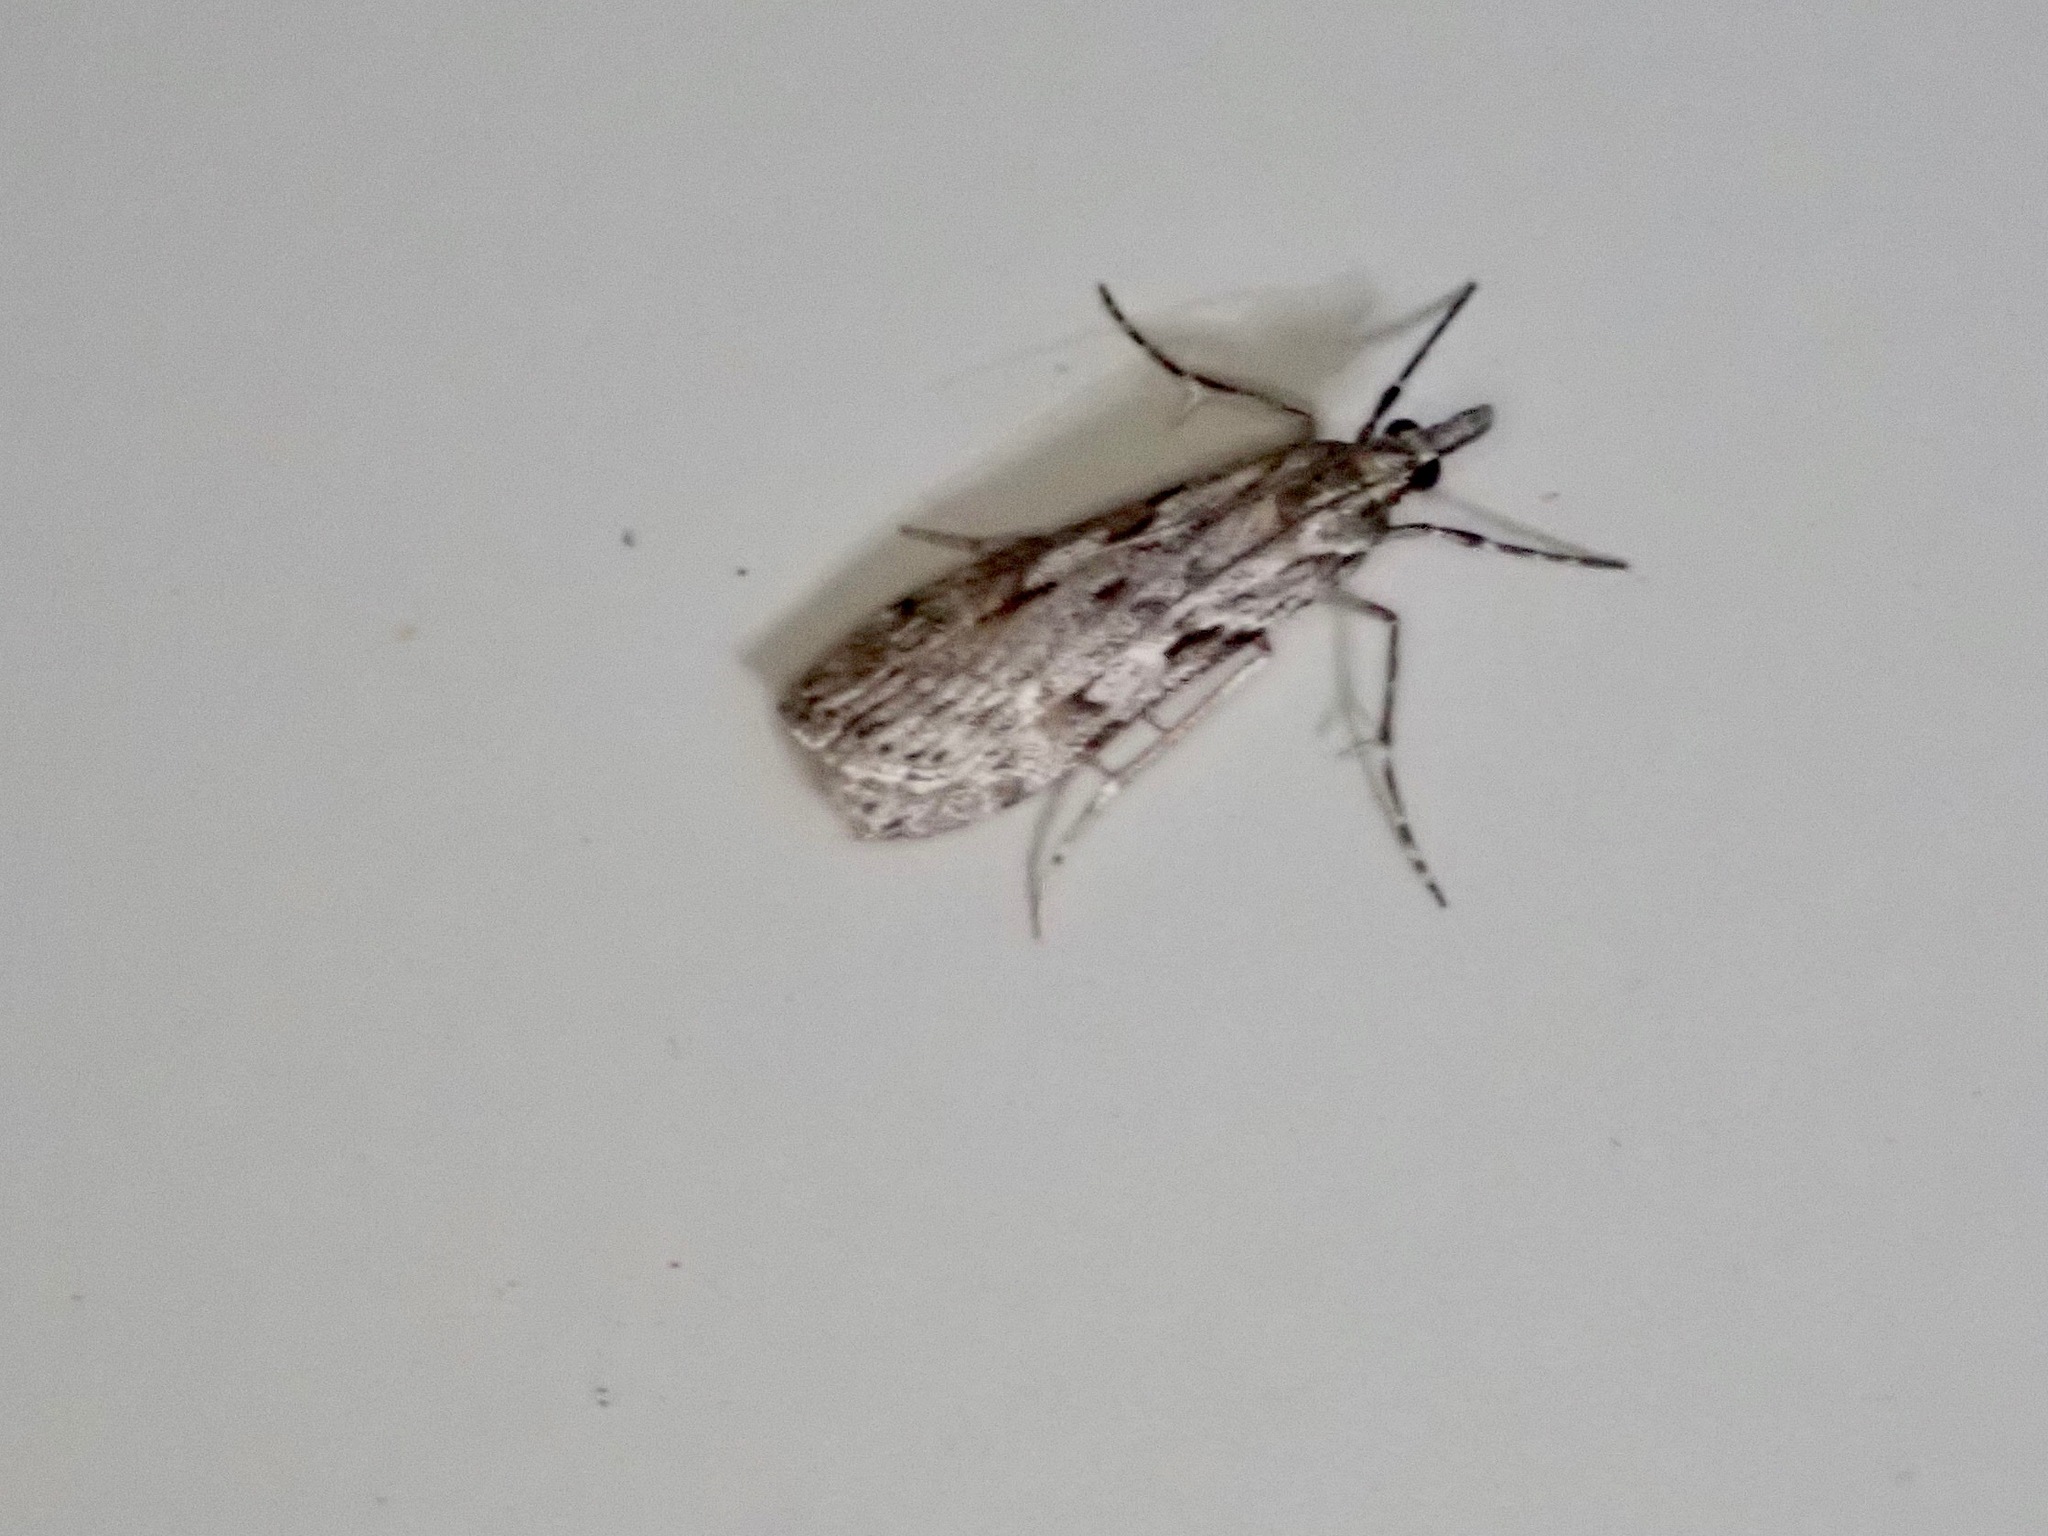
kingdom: Animalia
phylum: Arthropoda
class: Insecta
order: Lepidoptera
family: Crambidae
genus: Scoparia
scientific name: Scoparia halopis
